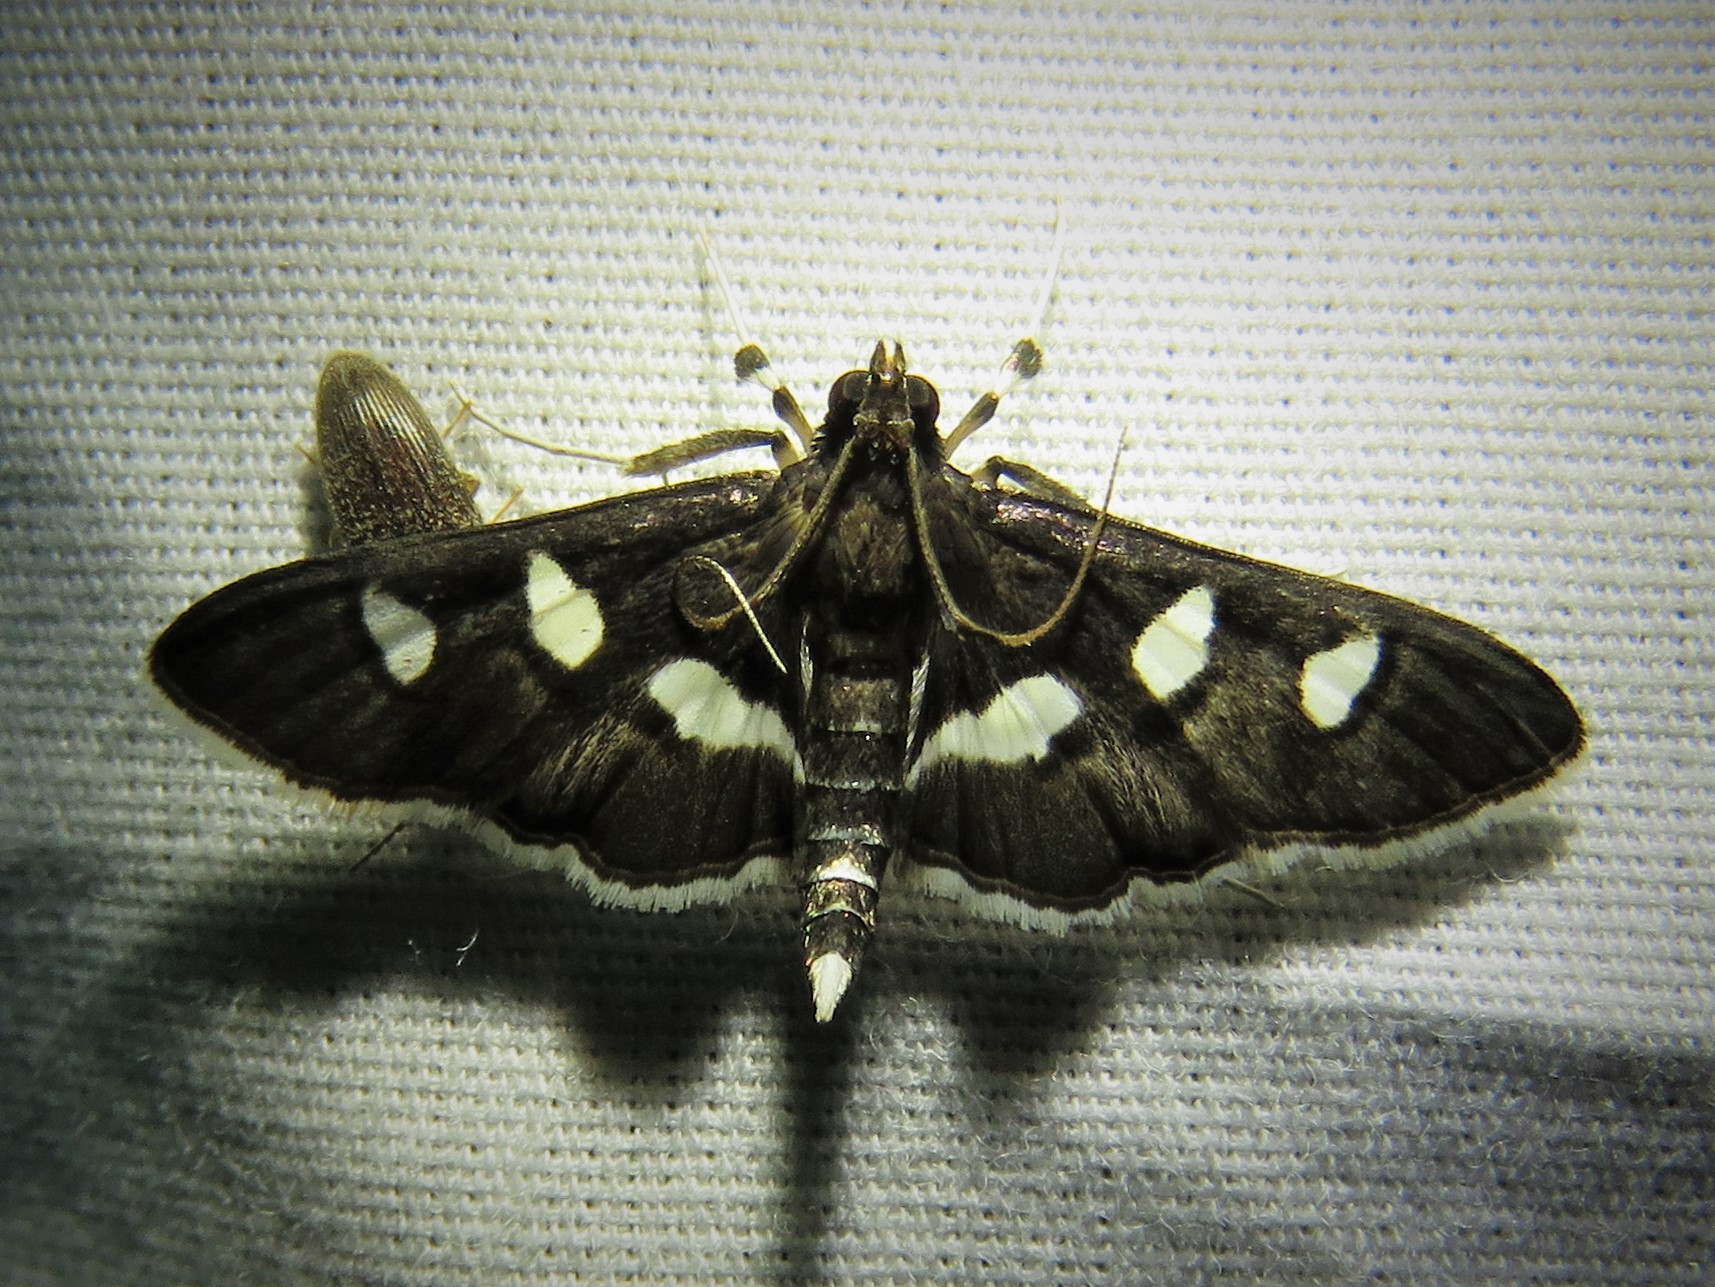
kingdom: Animalia
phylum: Arthropoda
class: Insecta
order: Lepidoptera
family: Crambidae
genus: Desmia
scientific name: Desmia funeralis
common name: Grape leaf folder moth
